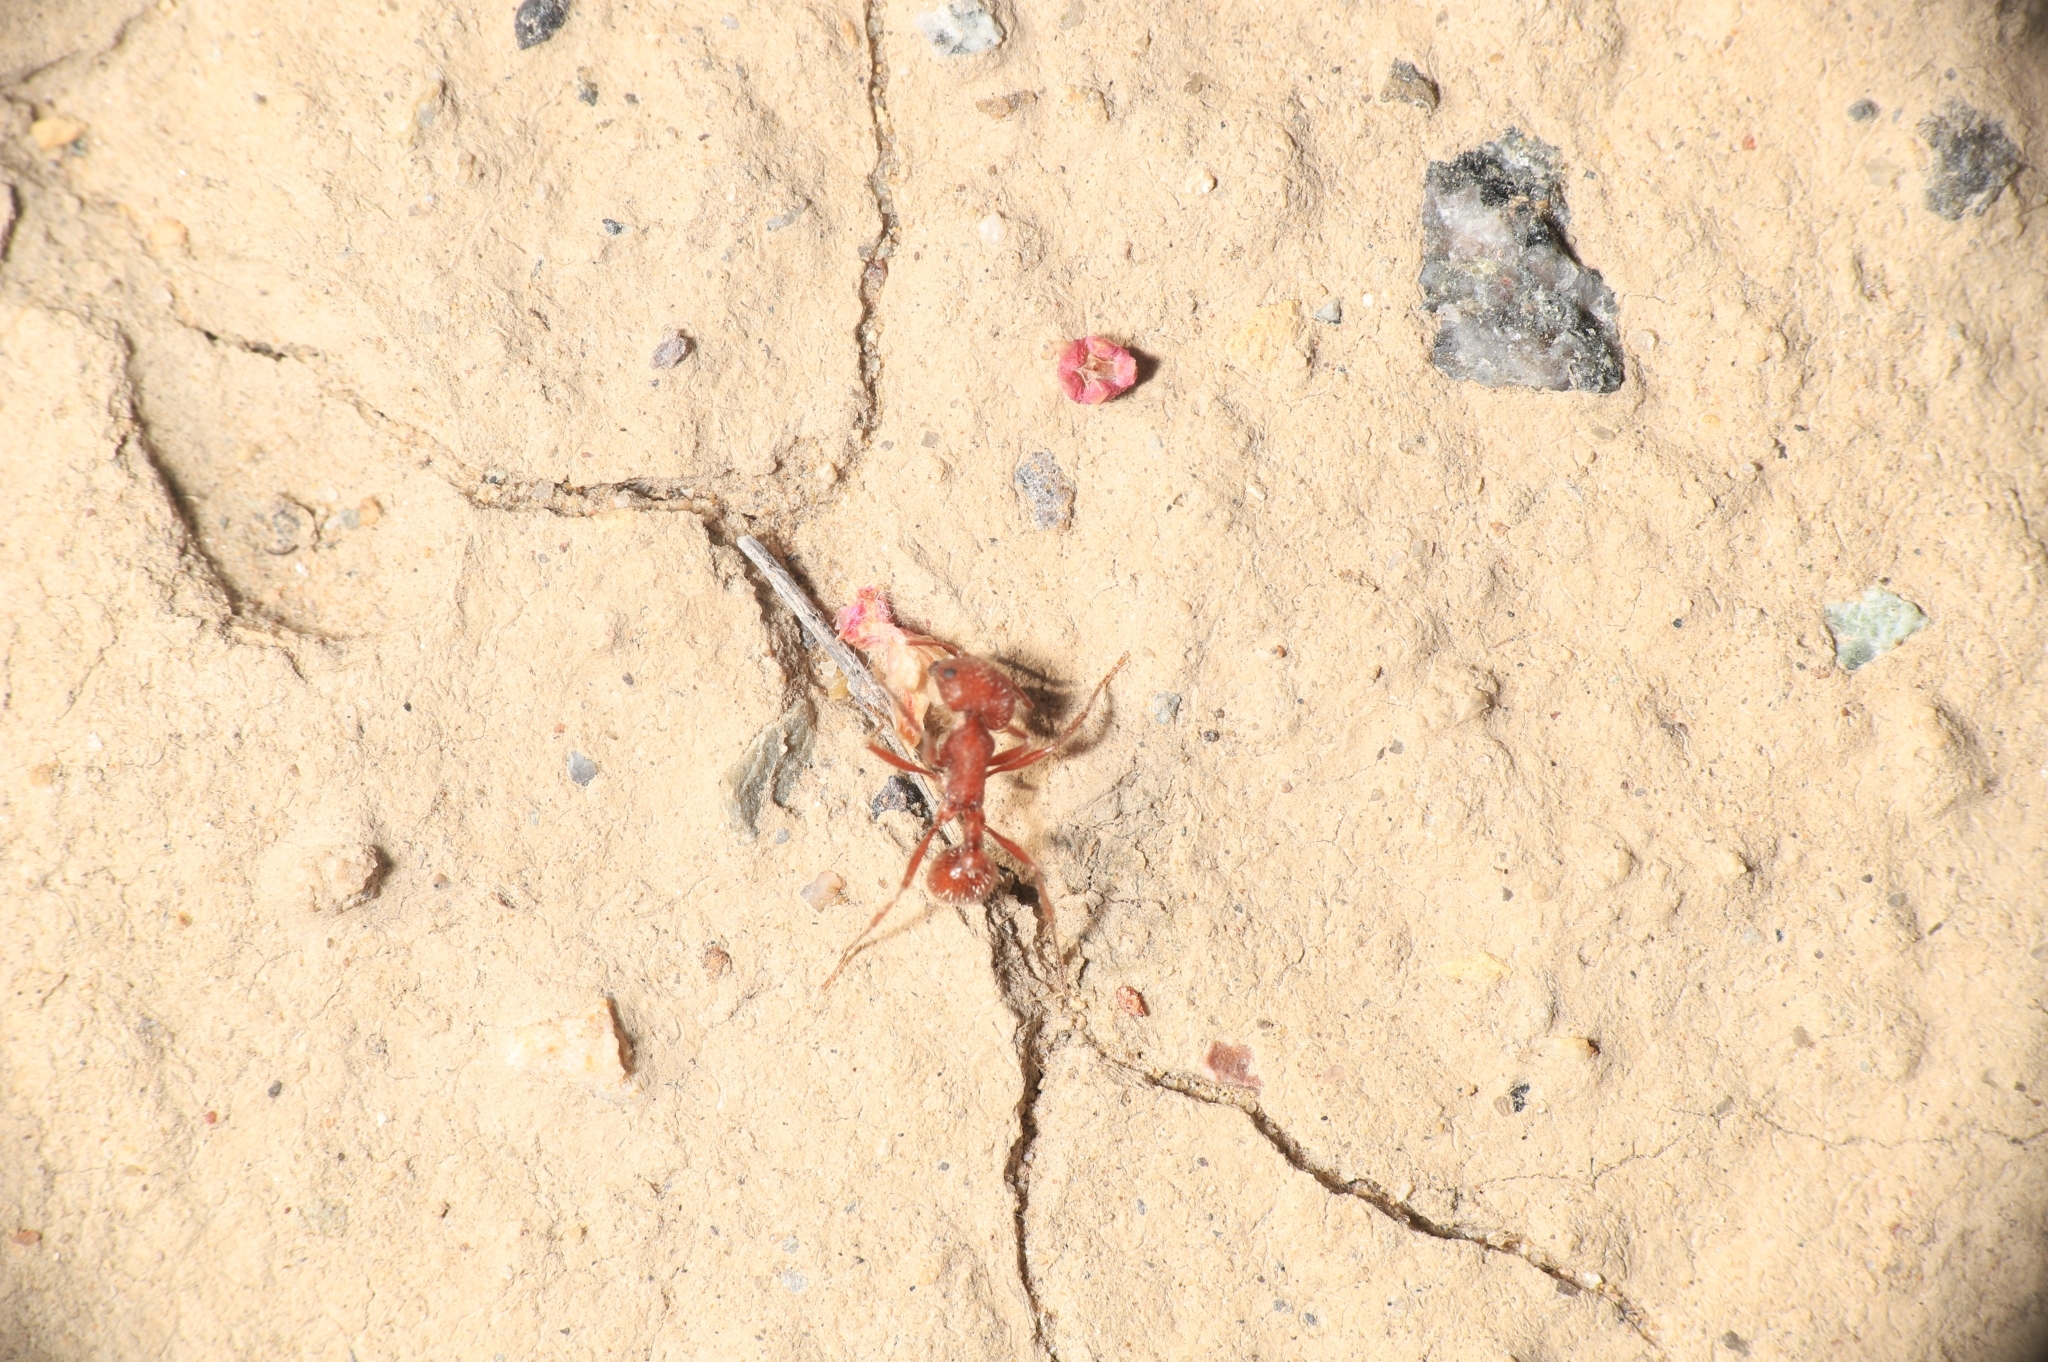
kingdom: Animalia
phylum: Arthropoda
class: Insecta
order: Hymenoptera
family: Formicidae
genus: Pogonomyrmex
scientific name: Pogonomyrmex barbatus
